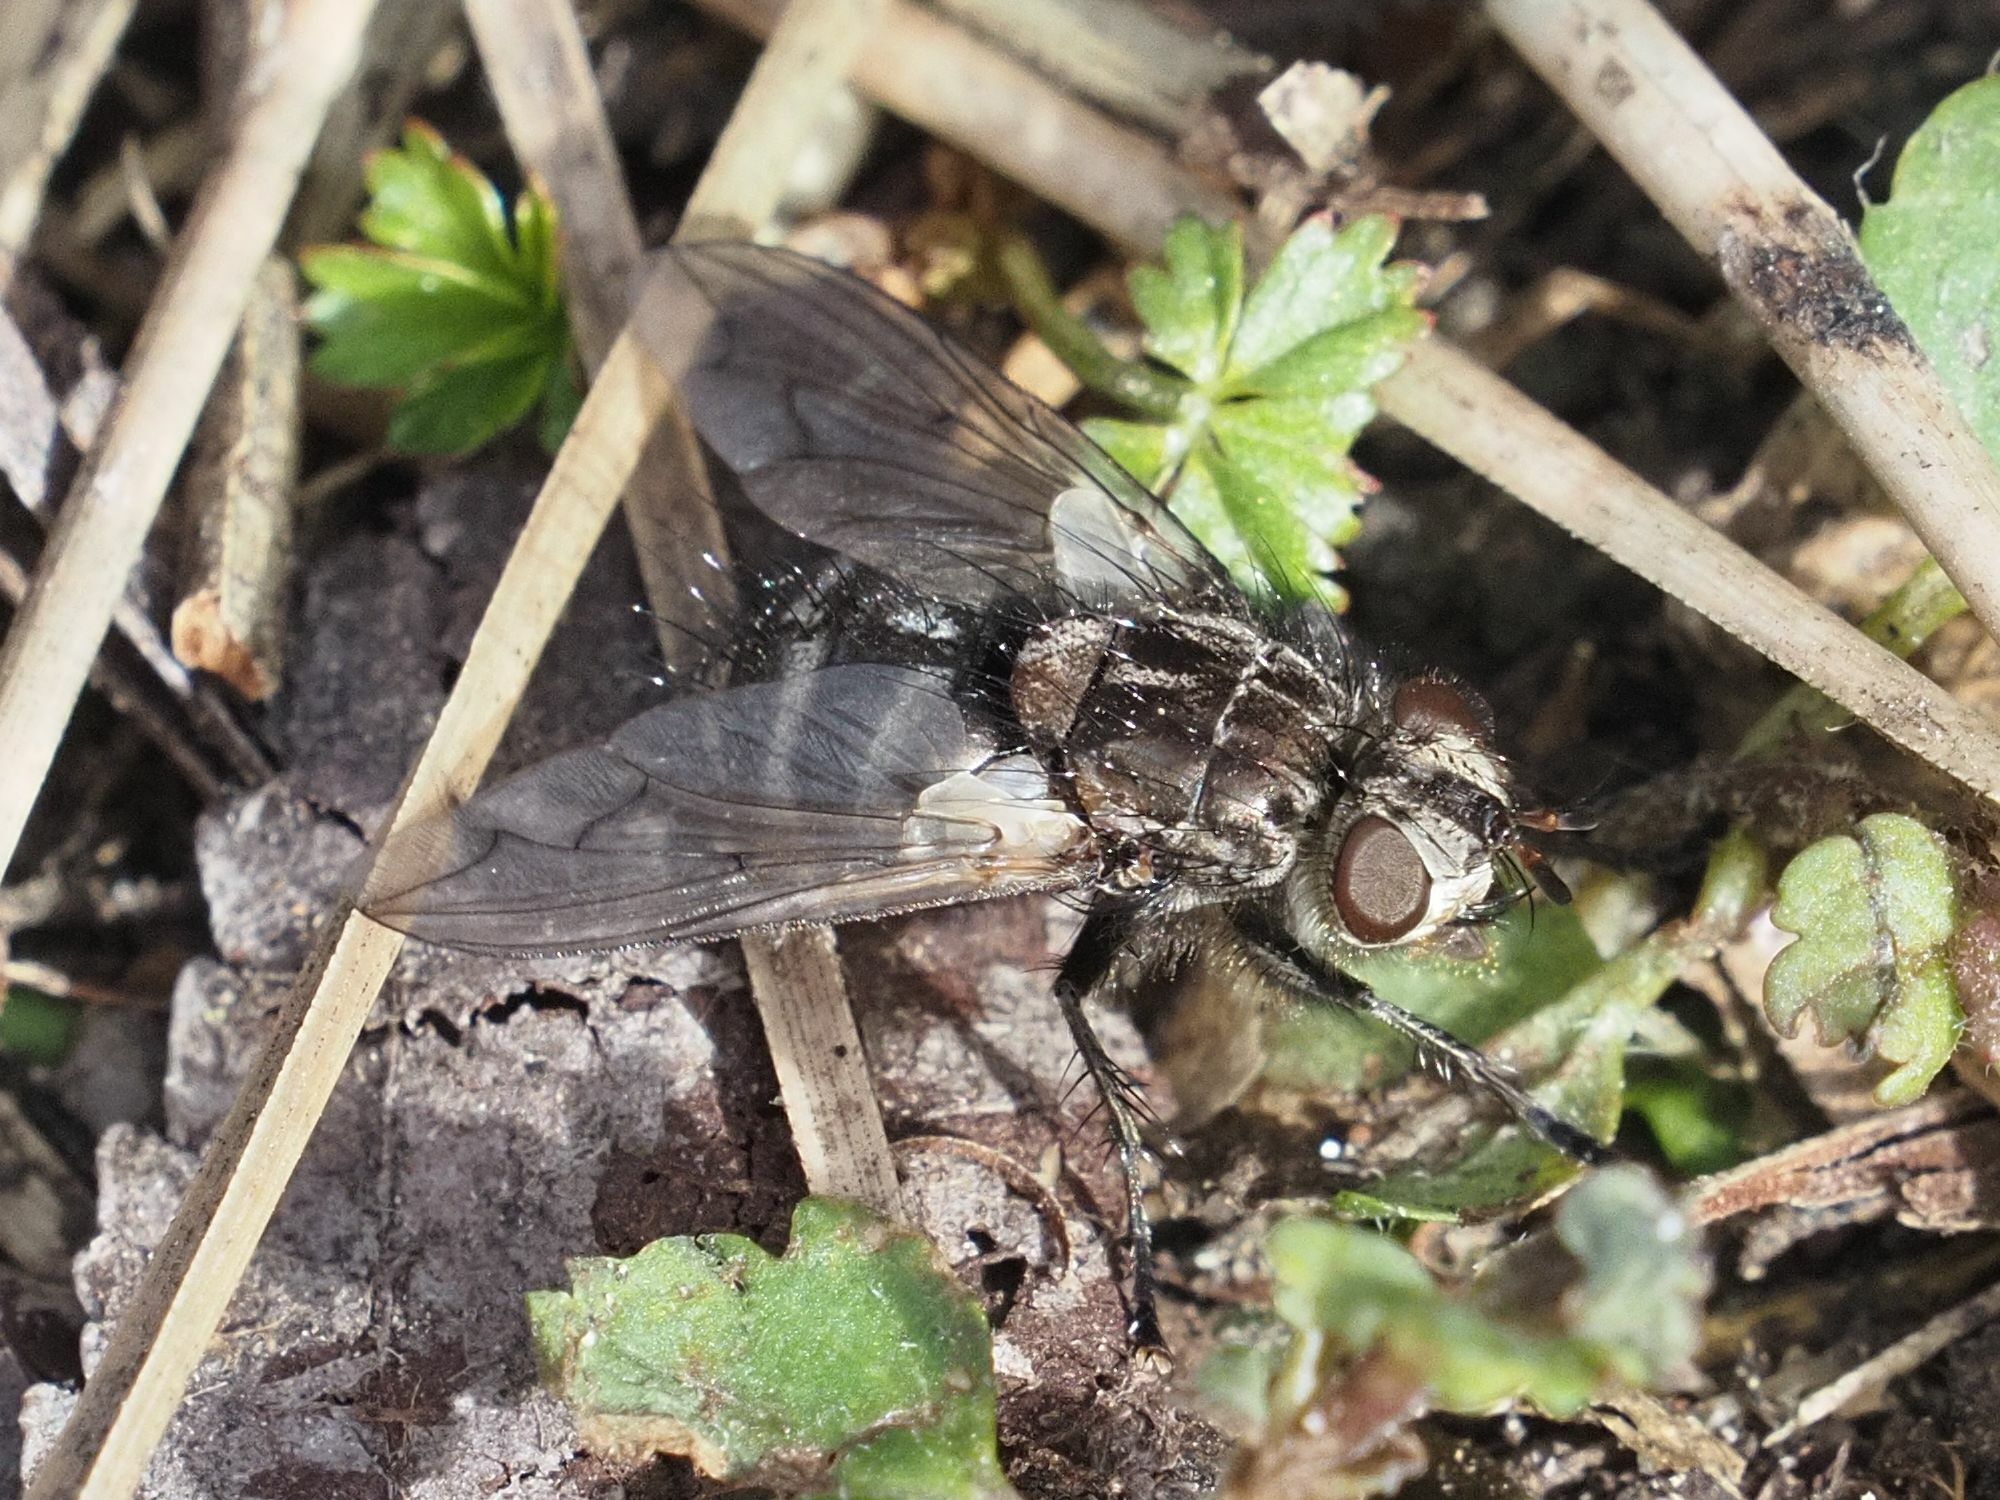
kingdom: Animalia
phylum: Arthropoda
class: Insecta
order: Diptera
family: Tachinidae
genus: Panzeria
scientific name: Panzeria puparum
